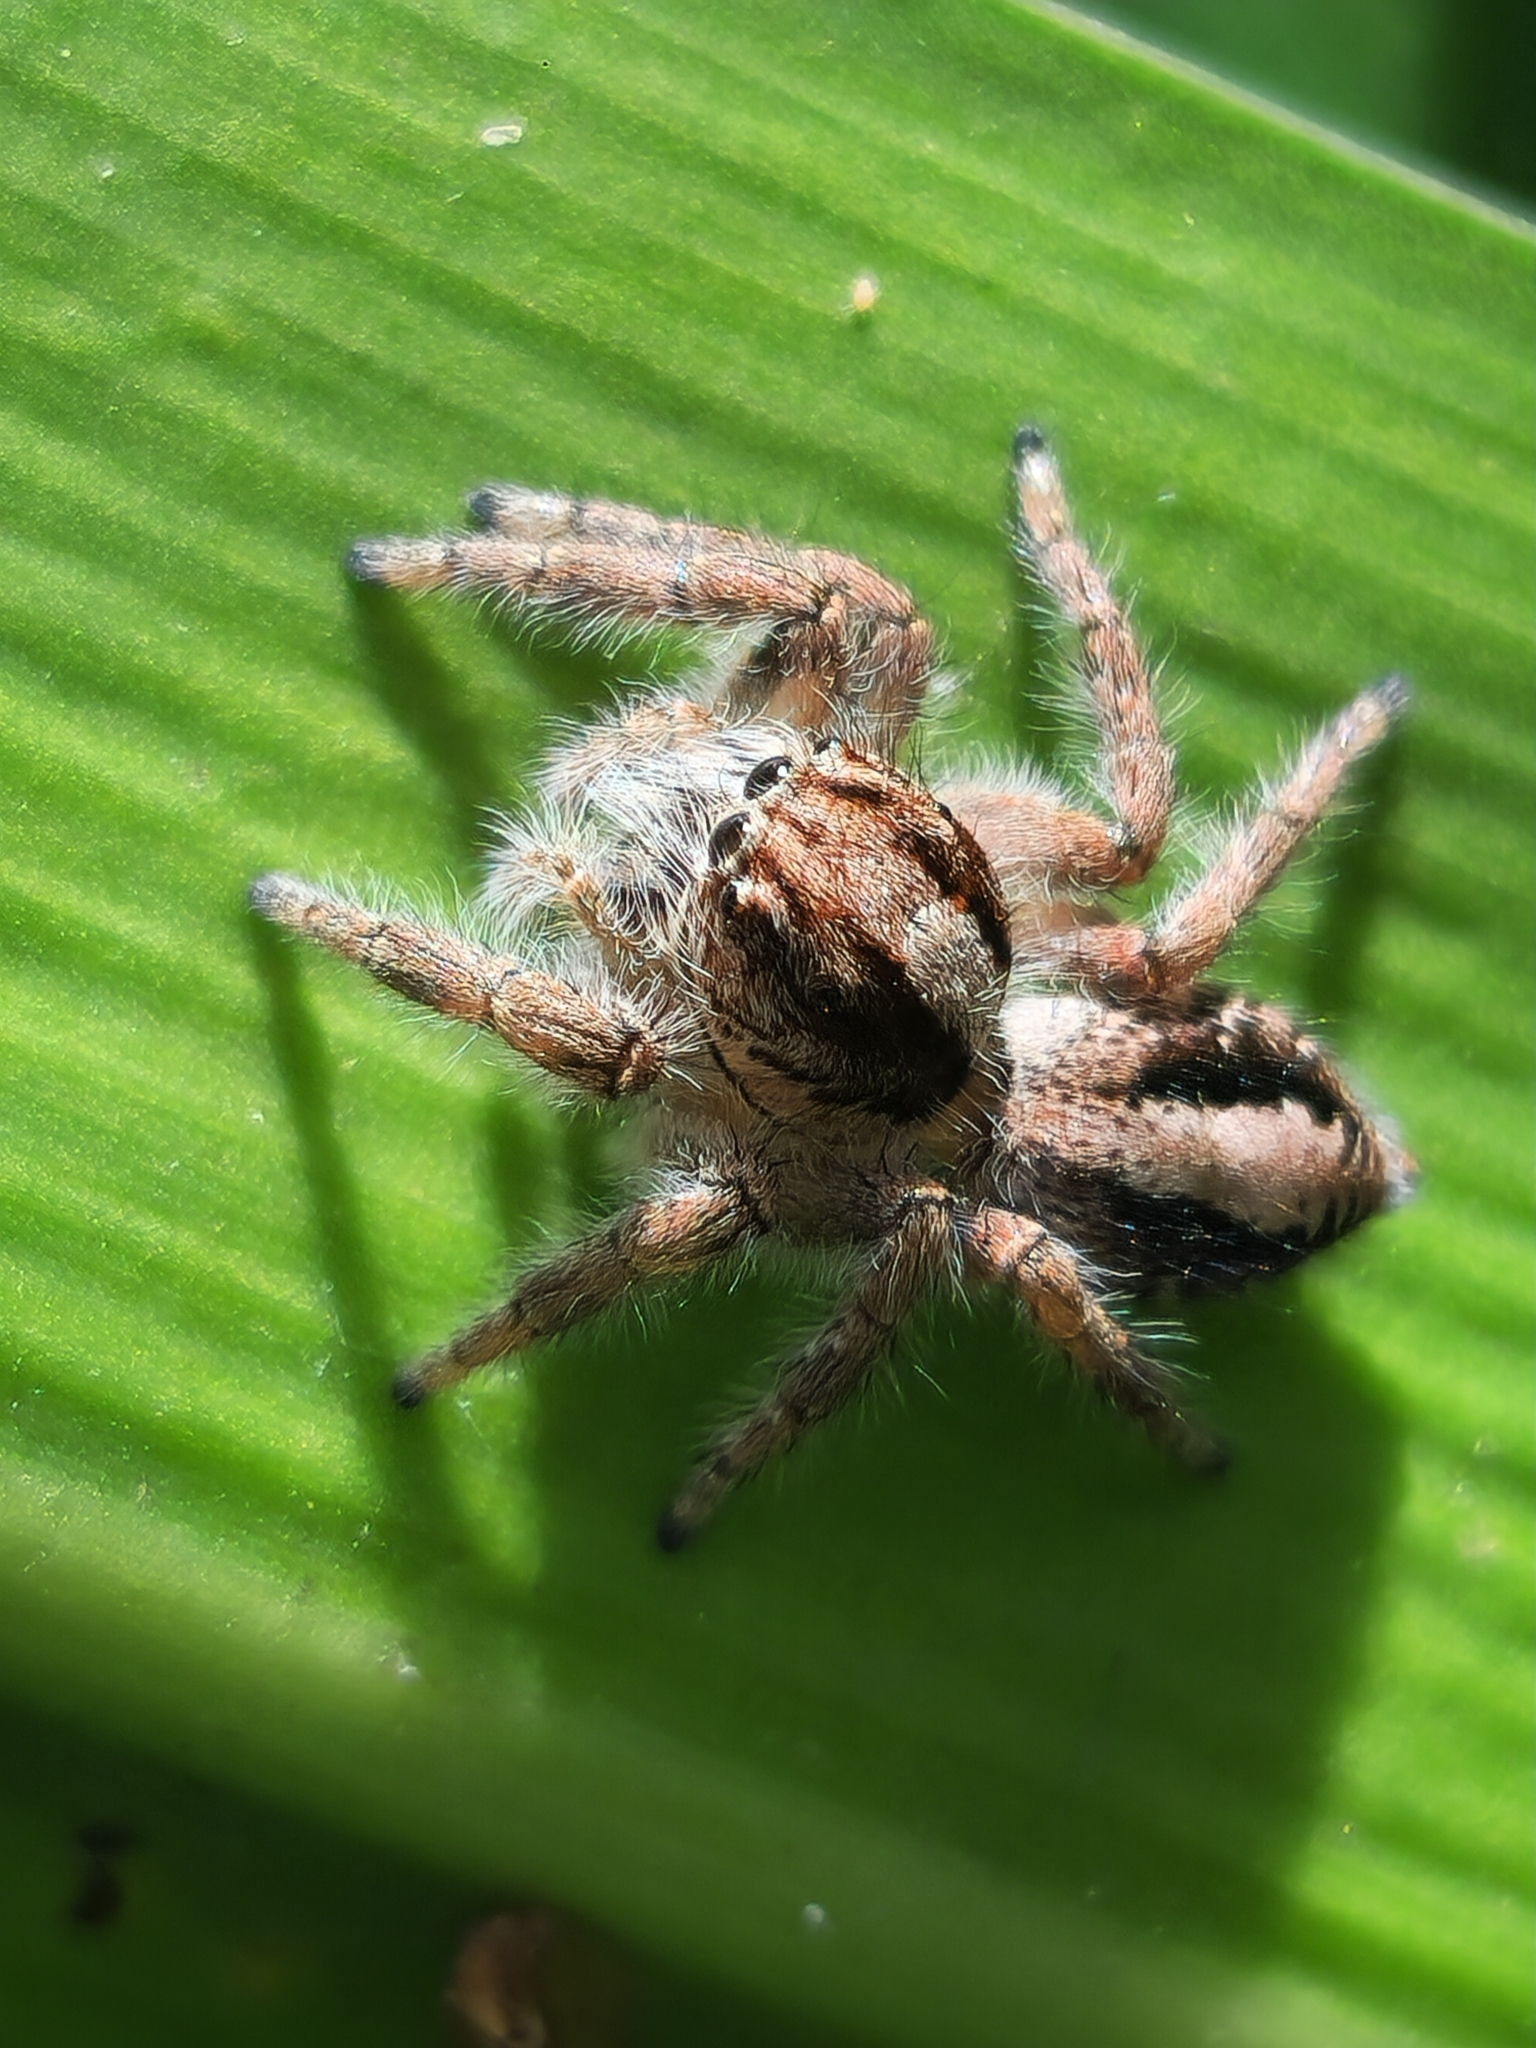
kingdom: Animalia
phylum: Arthropoda
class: Arachnida
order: Araneae
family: Salticidae
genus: Megafreya
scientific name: Megafreya sutrix
